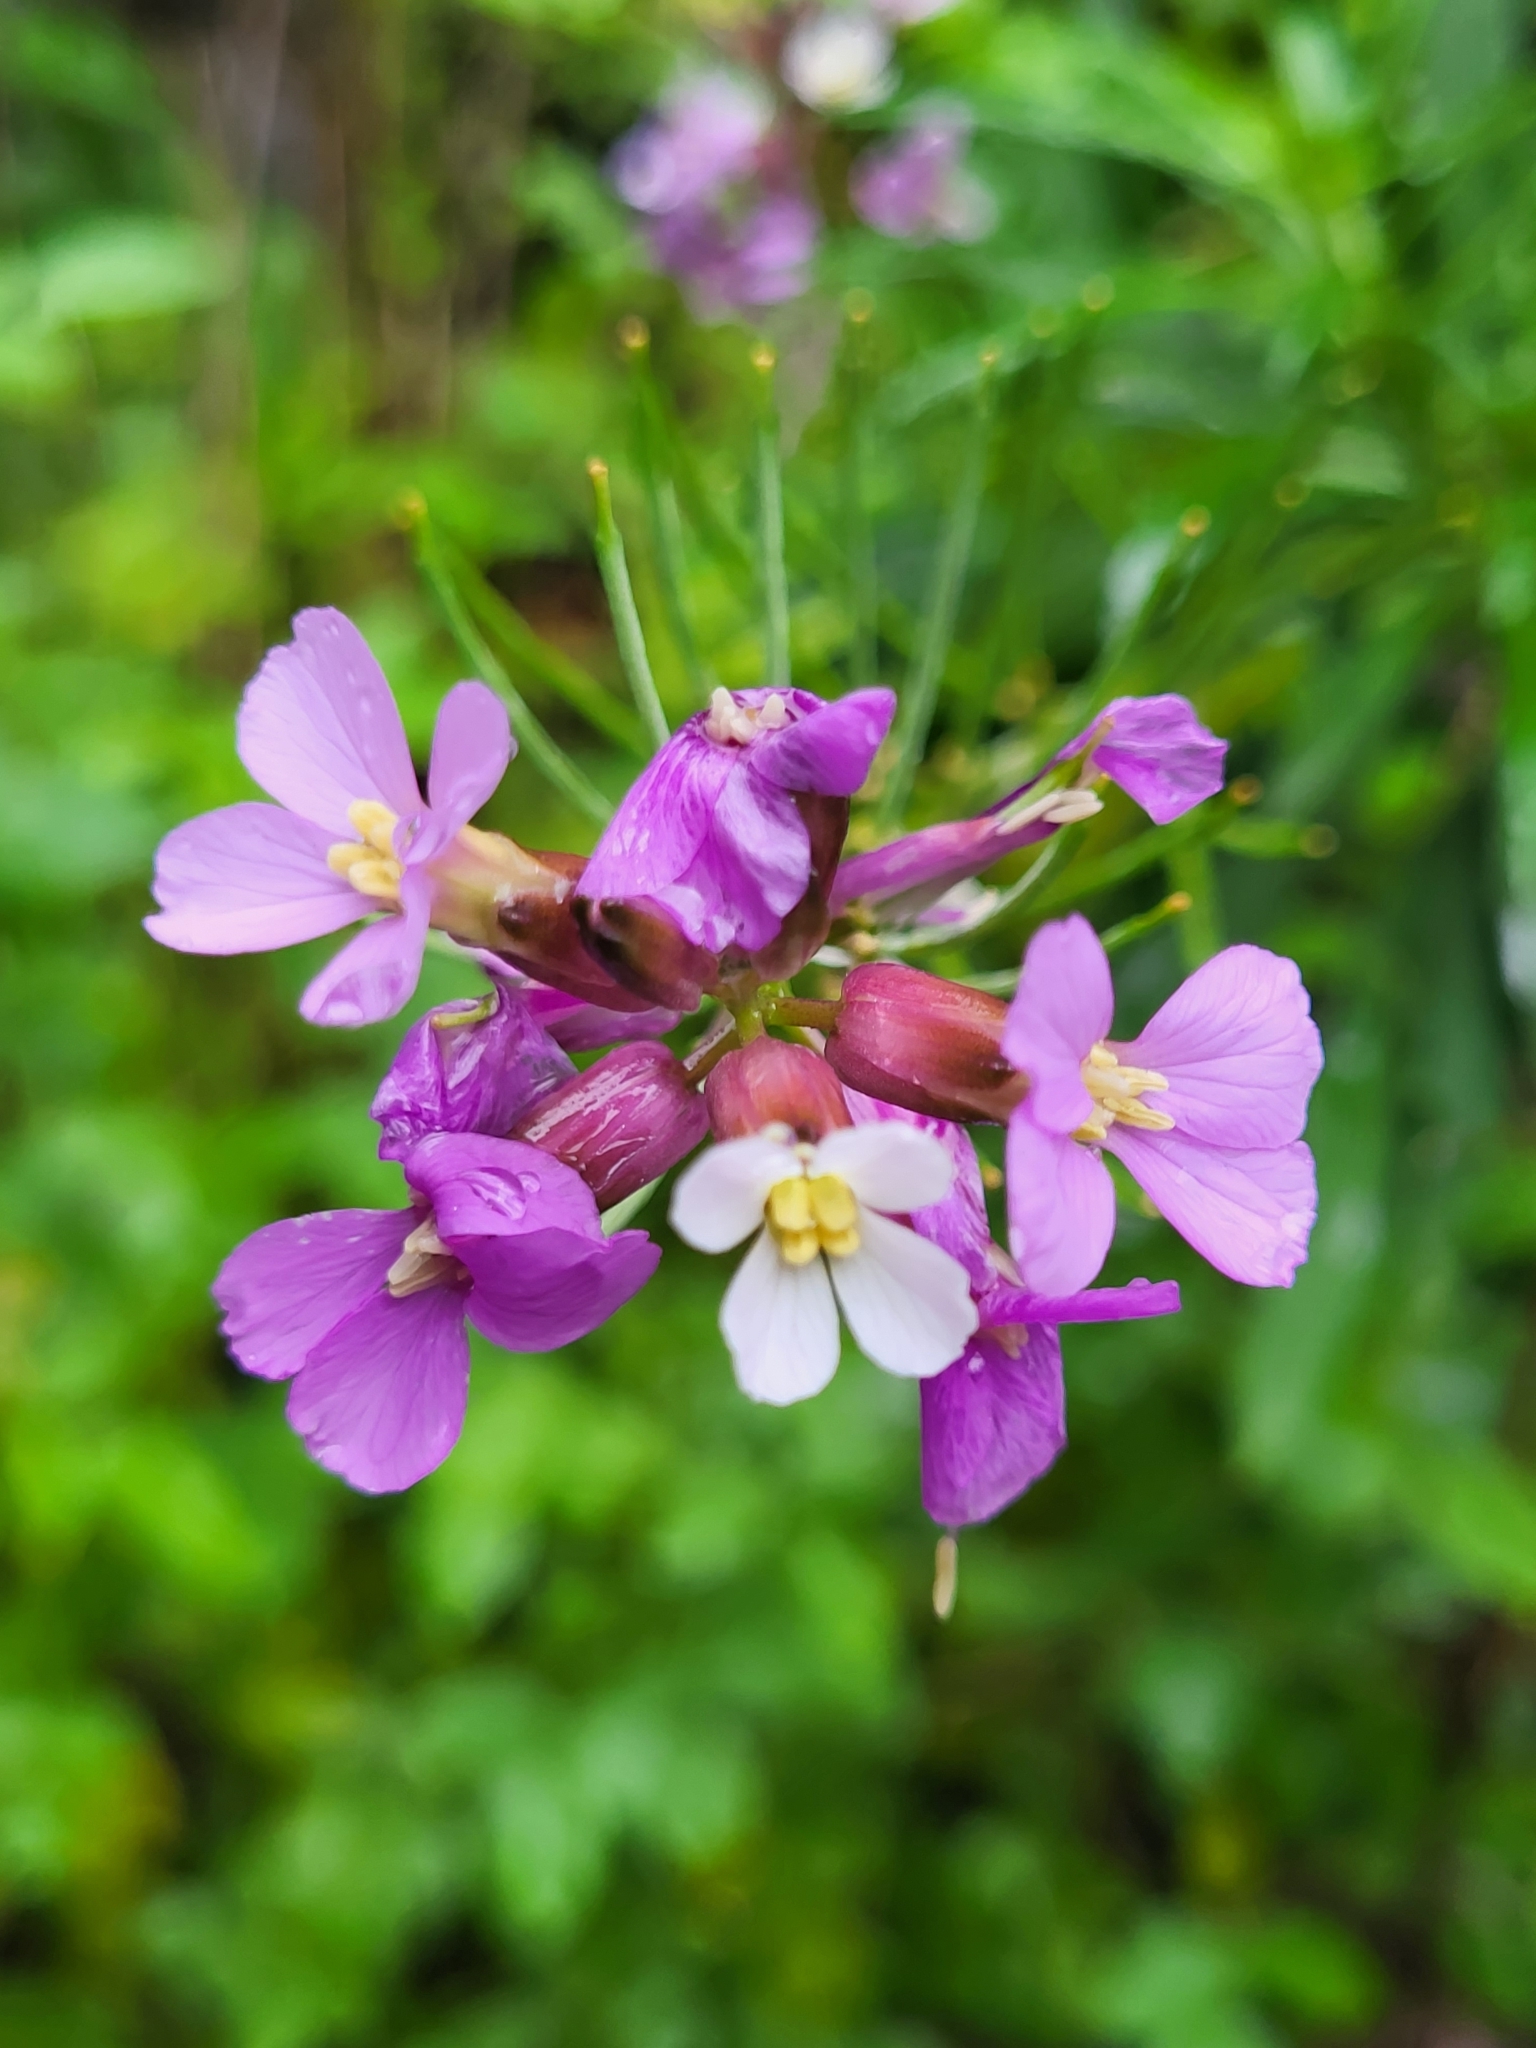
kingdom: Plantae
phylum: Tracheophyta
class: Magnoliopsida
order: Brassicales
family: Brassicaceae
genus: Erysimum
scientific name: Erysimum bicolor
